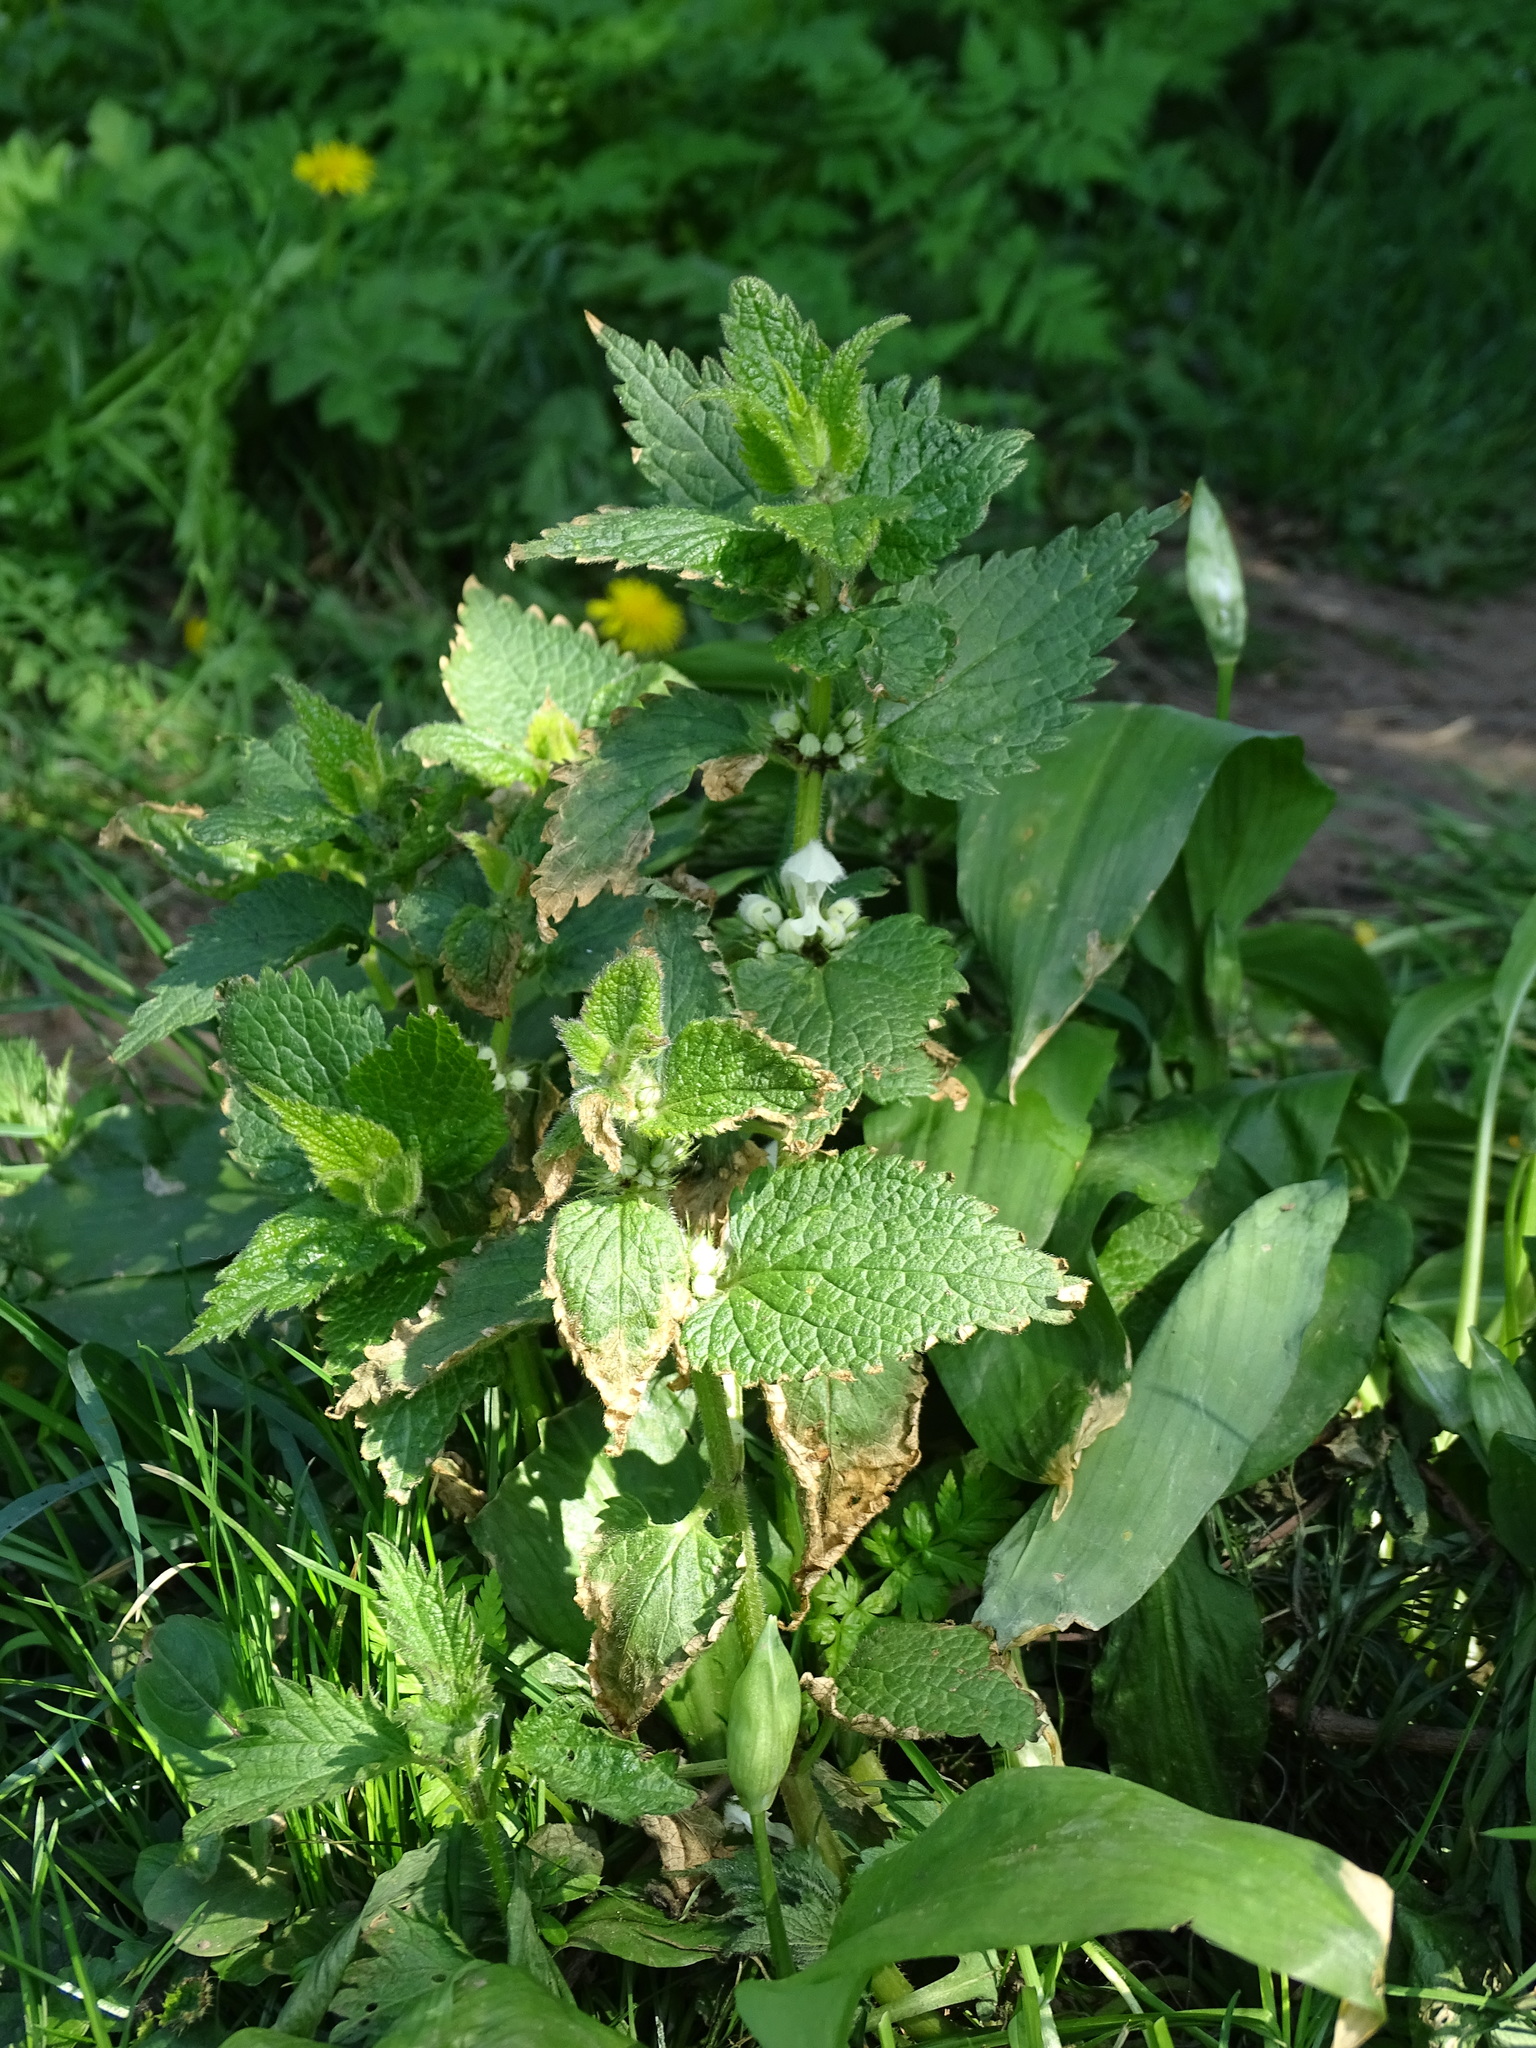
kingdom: Plantae
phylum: Tracheophyta
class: Magnoliopsida
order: Lamiales
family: Lamiaceae
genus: Lamium
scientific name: Lamium album
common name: White dead-nettle
